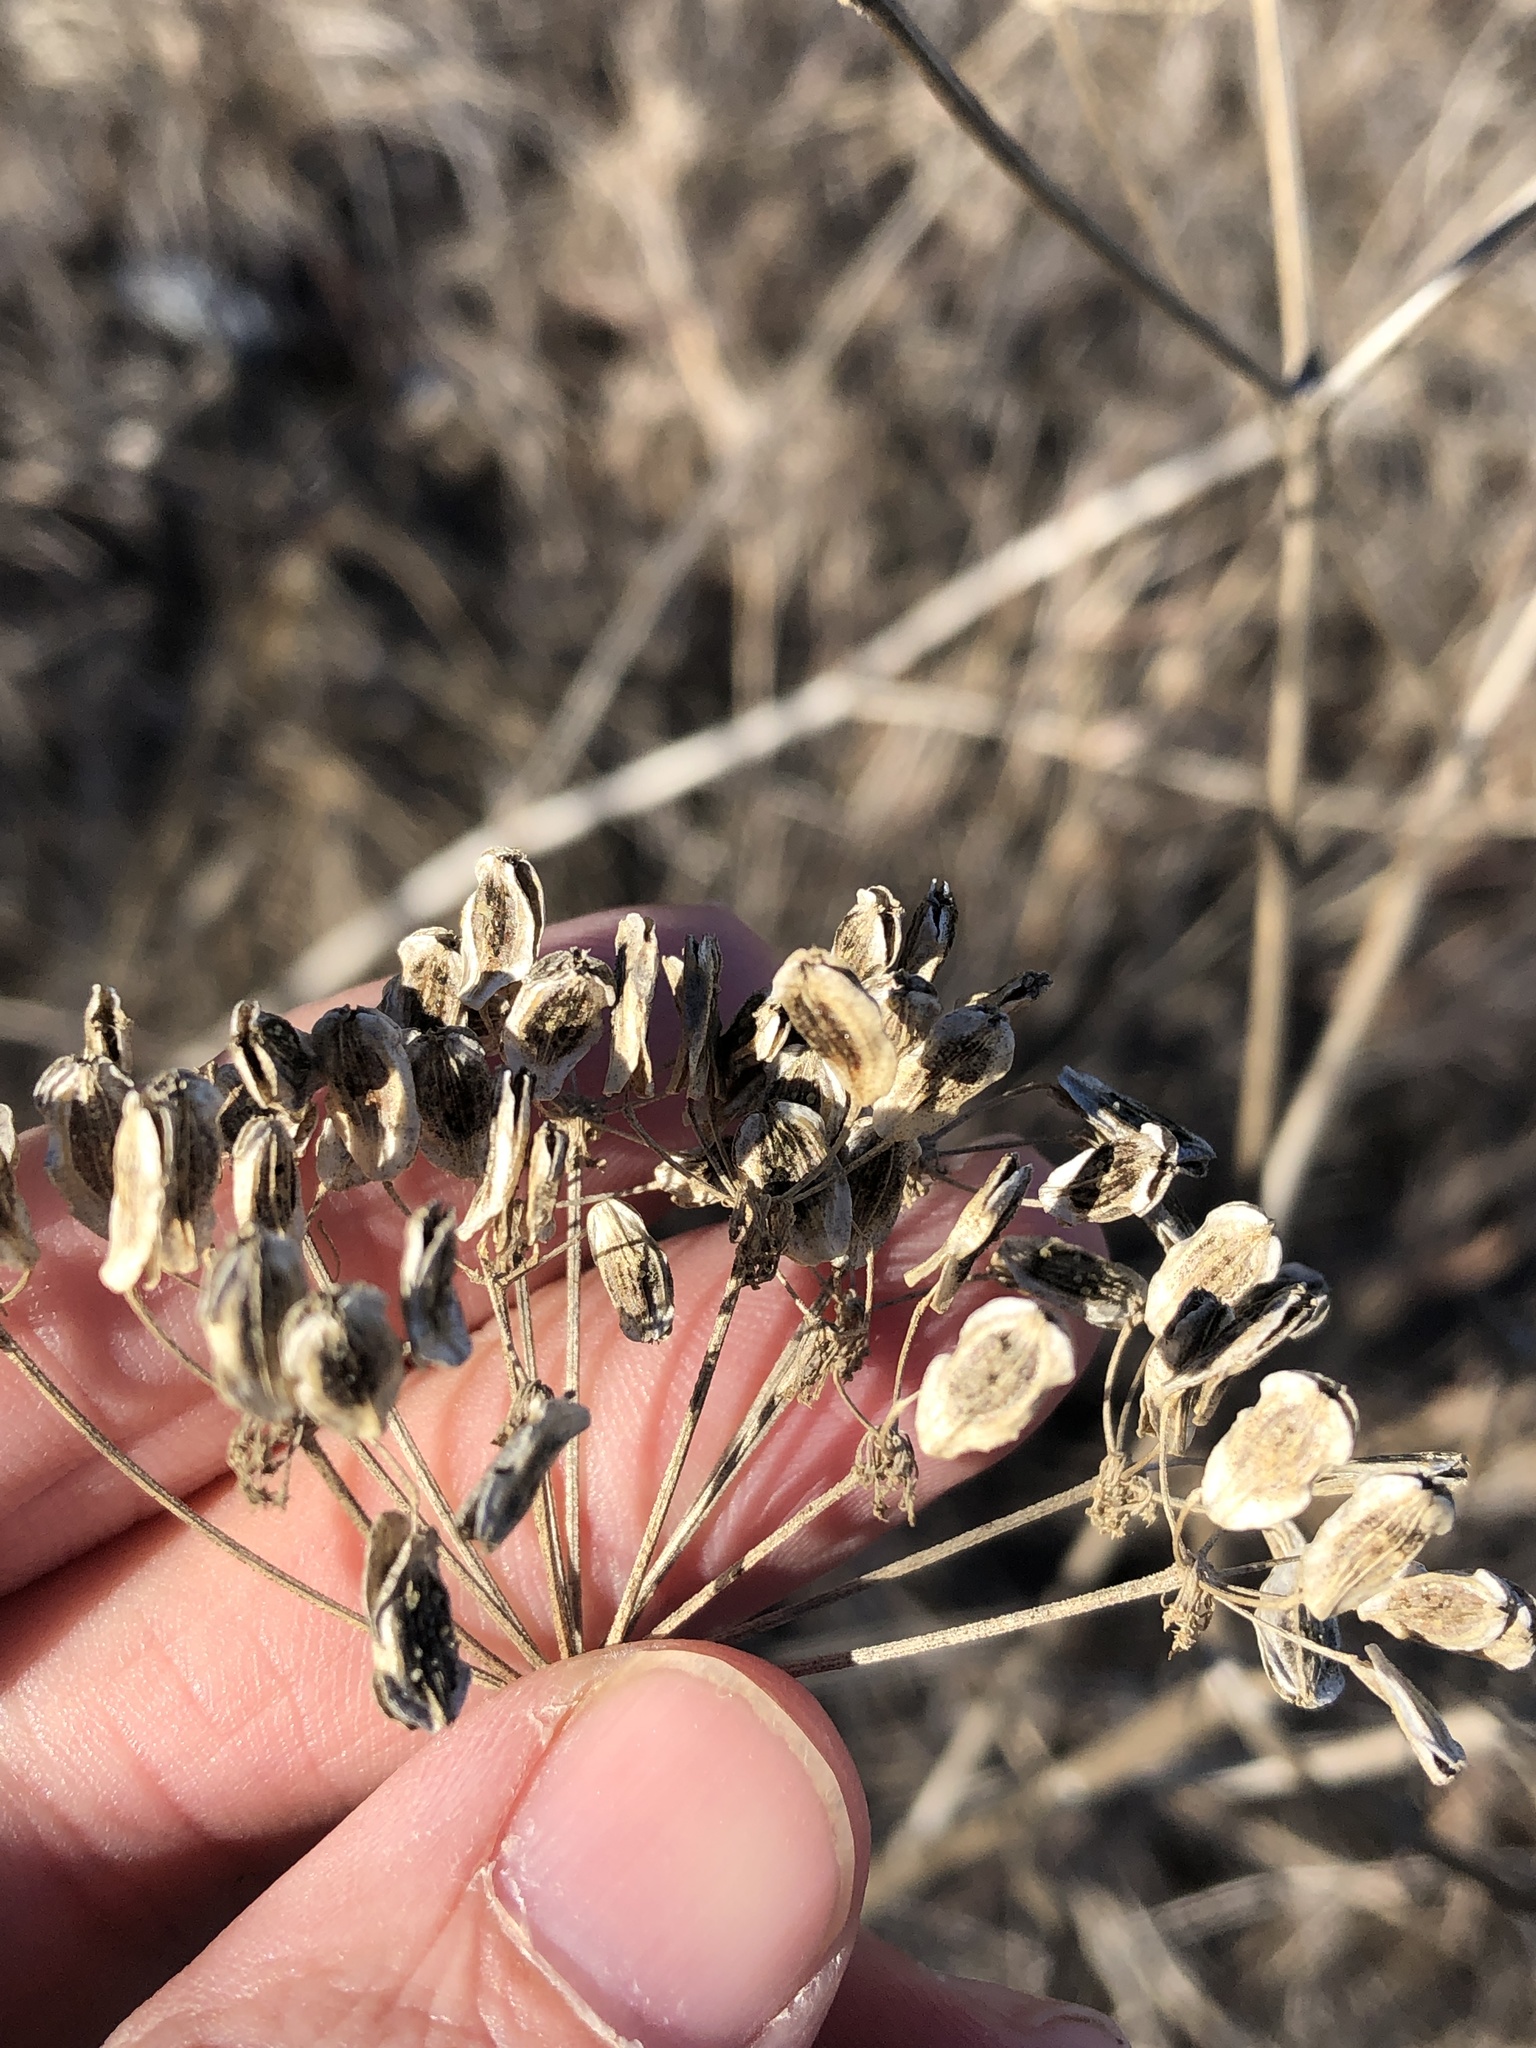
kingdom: Plantae
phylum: Tracheophyta
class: Magnoliopsida
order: Apiales
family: Apiaceae
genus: Polytaenia
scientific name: Polytaenia texana
